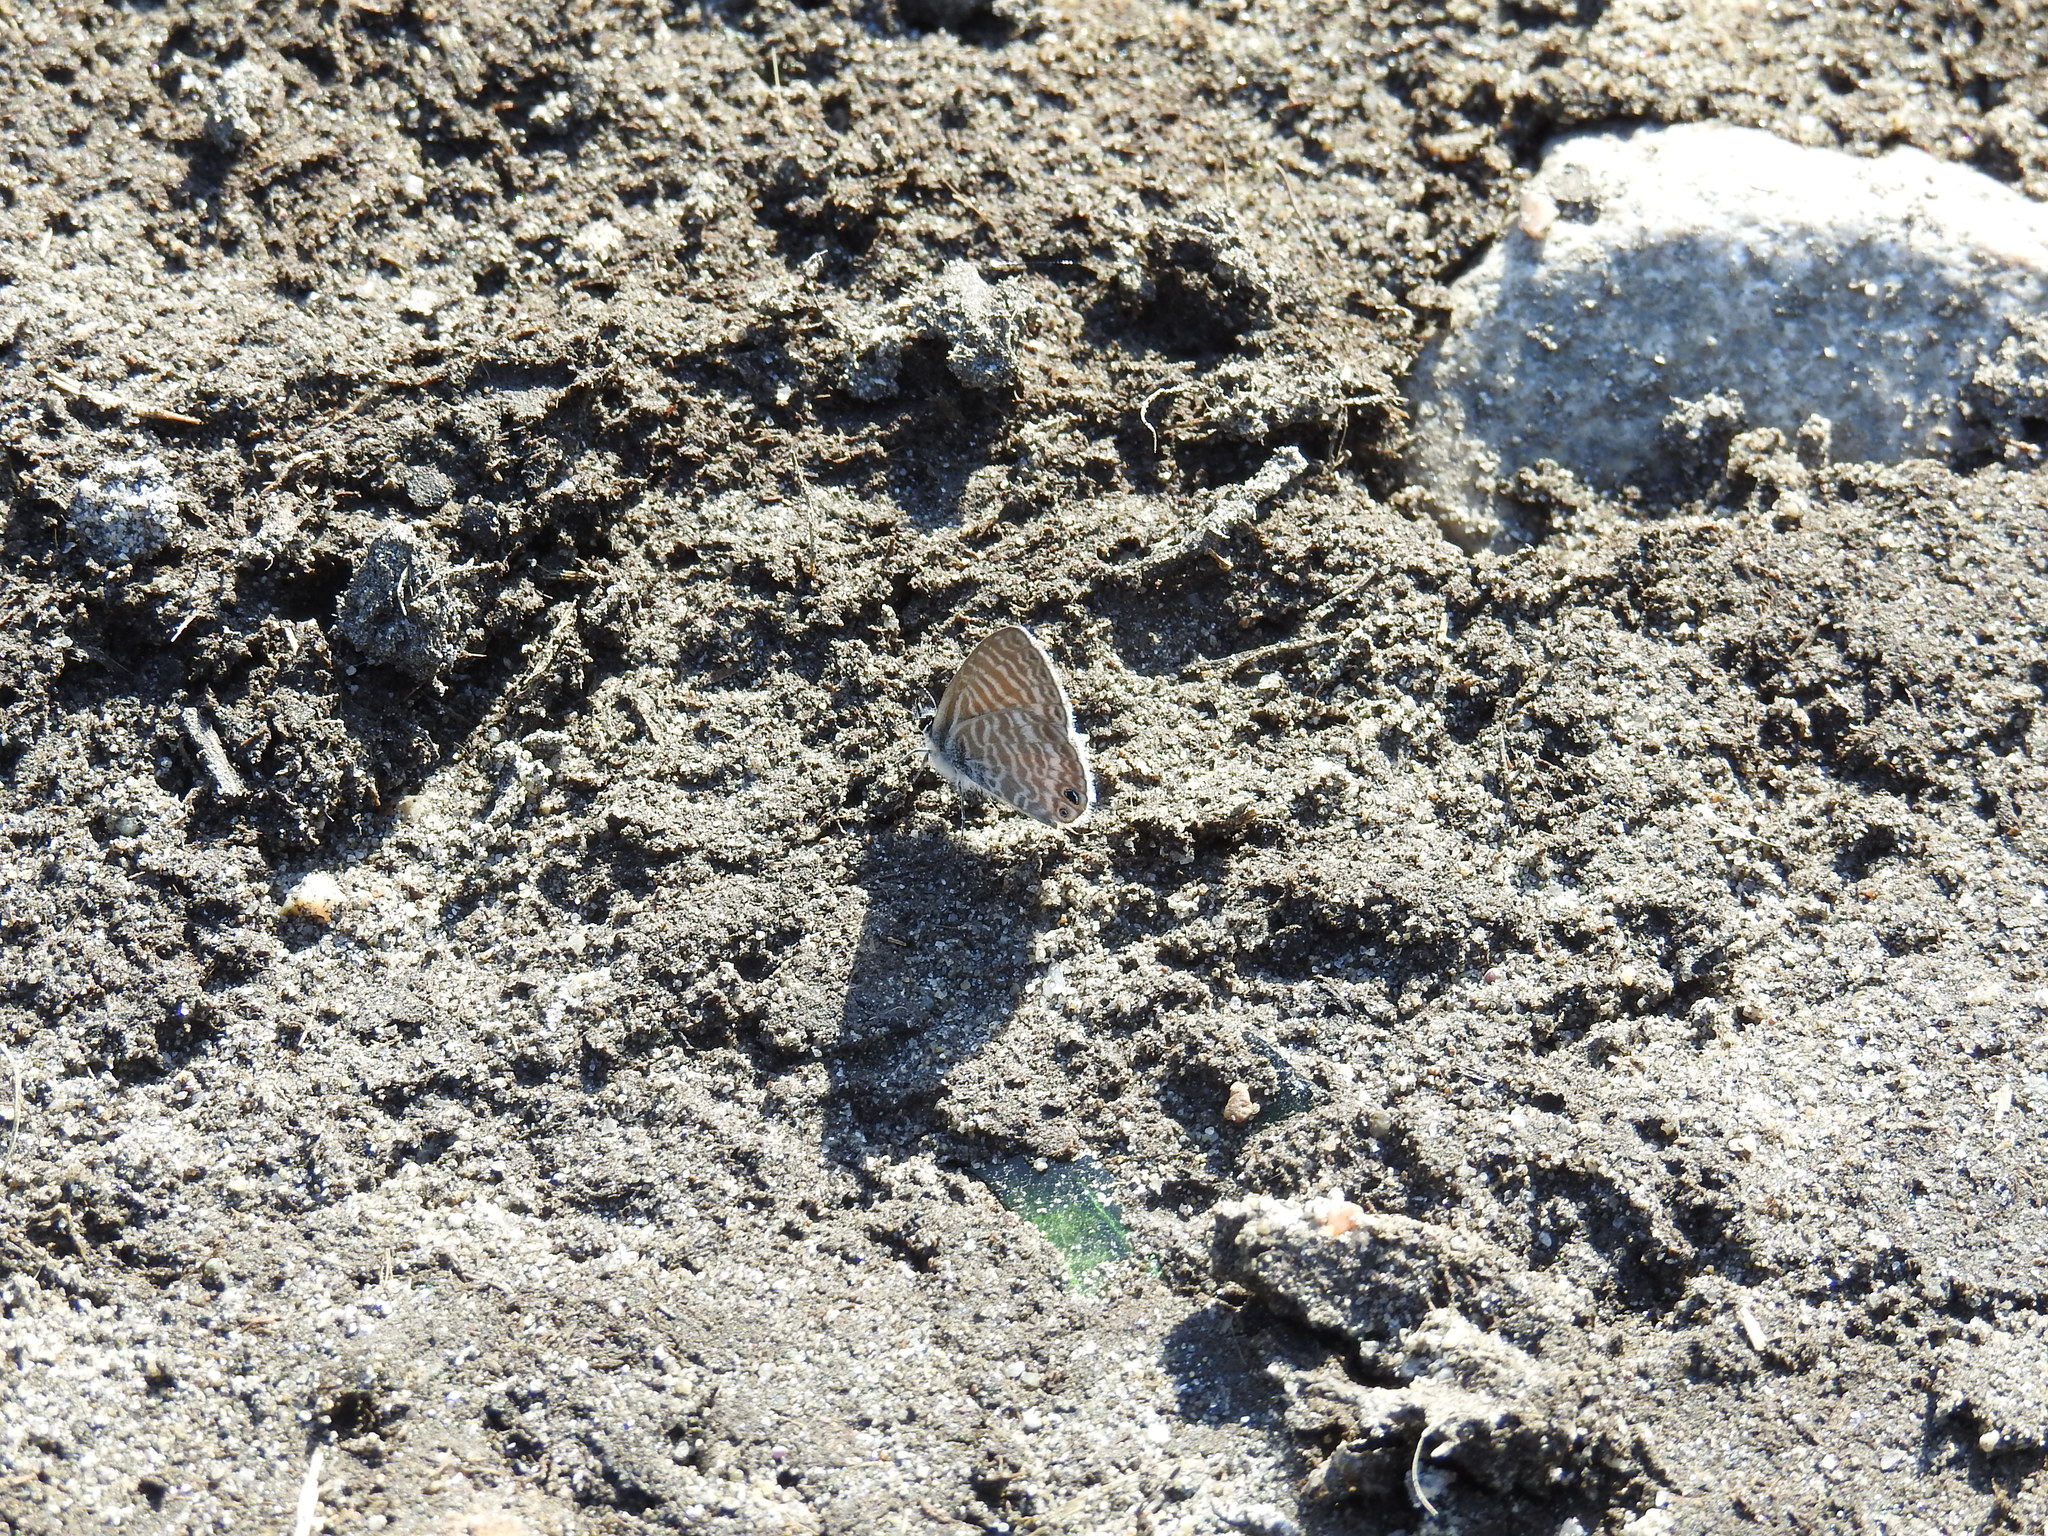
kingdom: Animalia
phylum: Arthropoda
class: Insecta
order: Lepidoptera
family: Lycaenidae
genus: Leptotes
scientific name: Leptotes marina
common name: Marine blue
